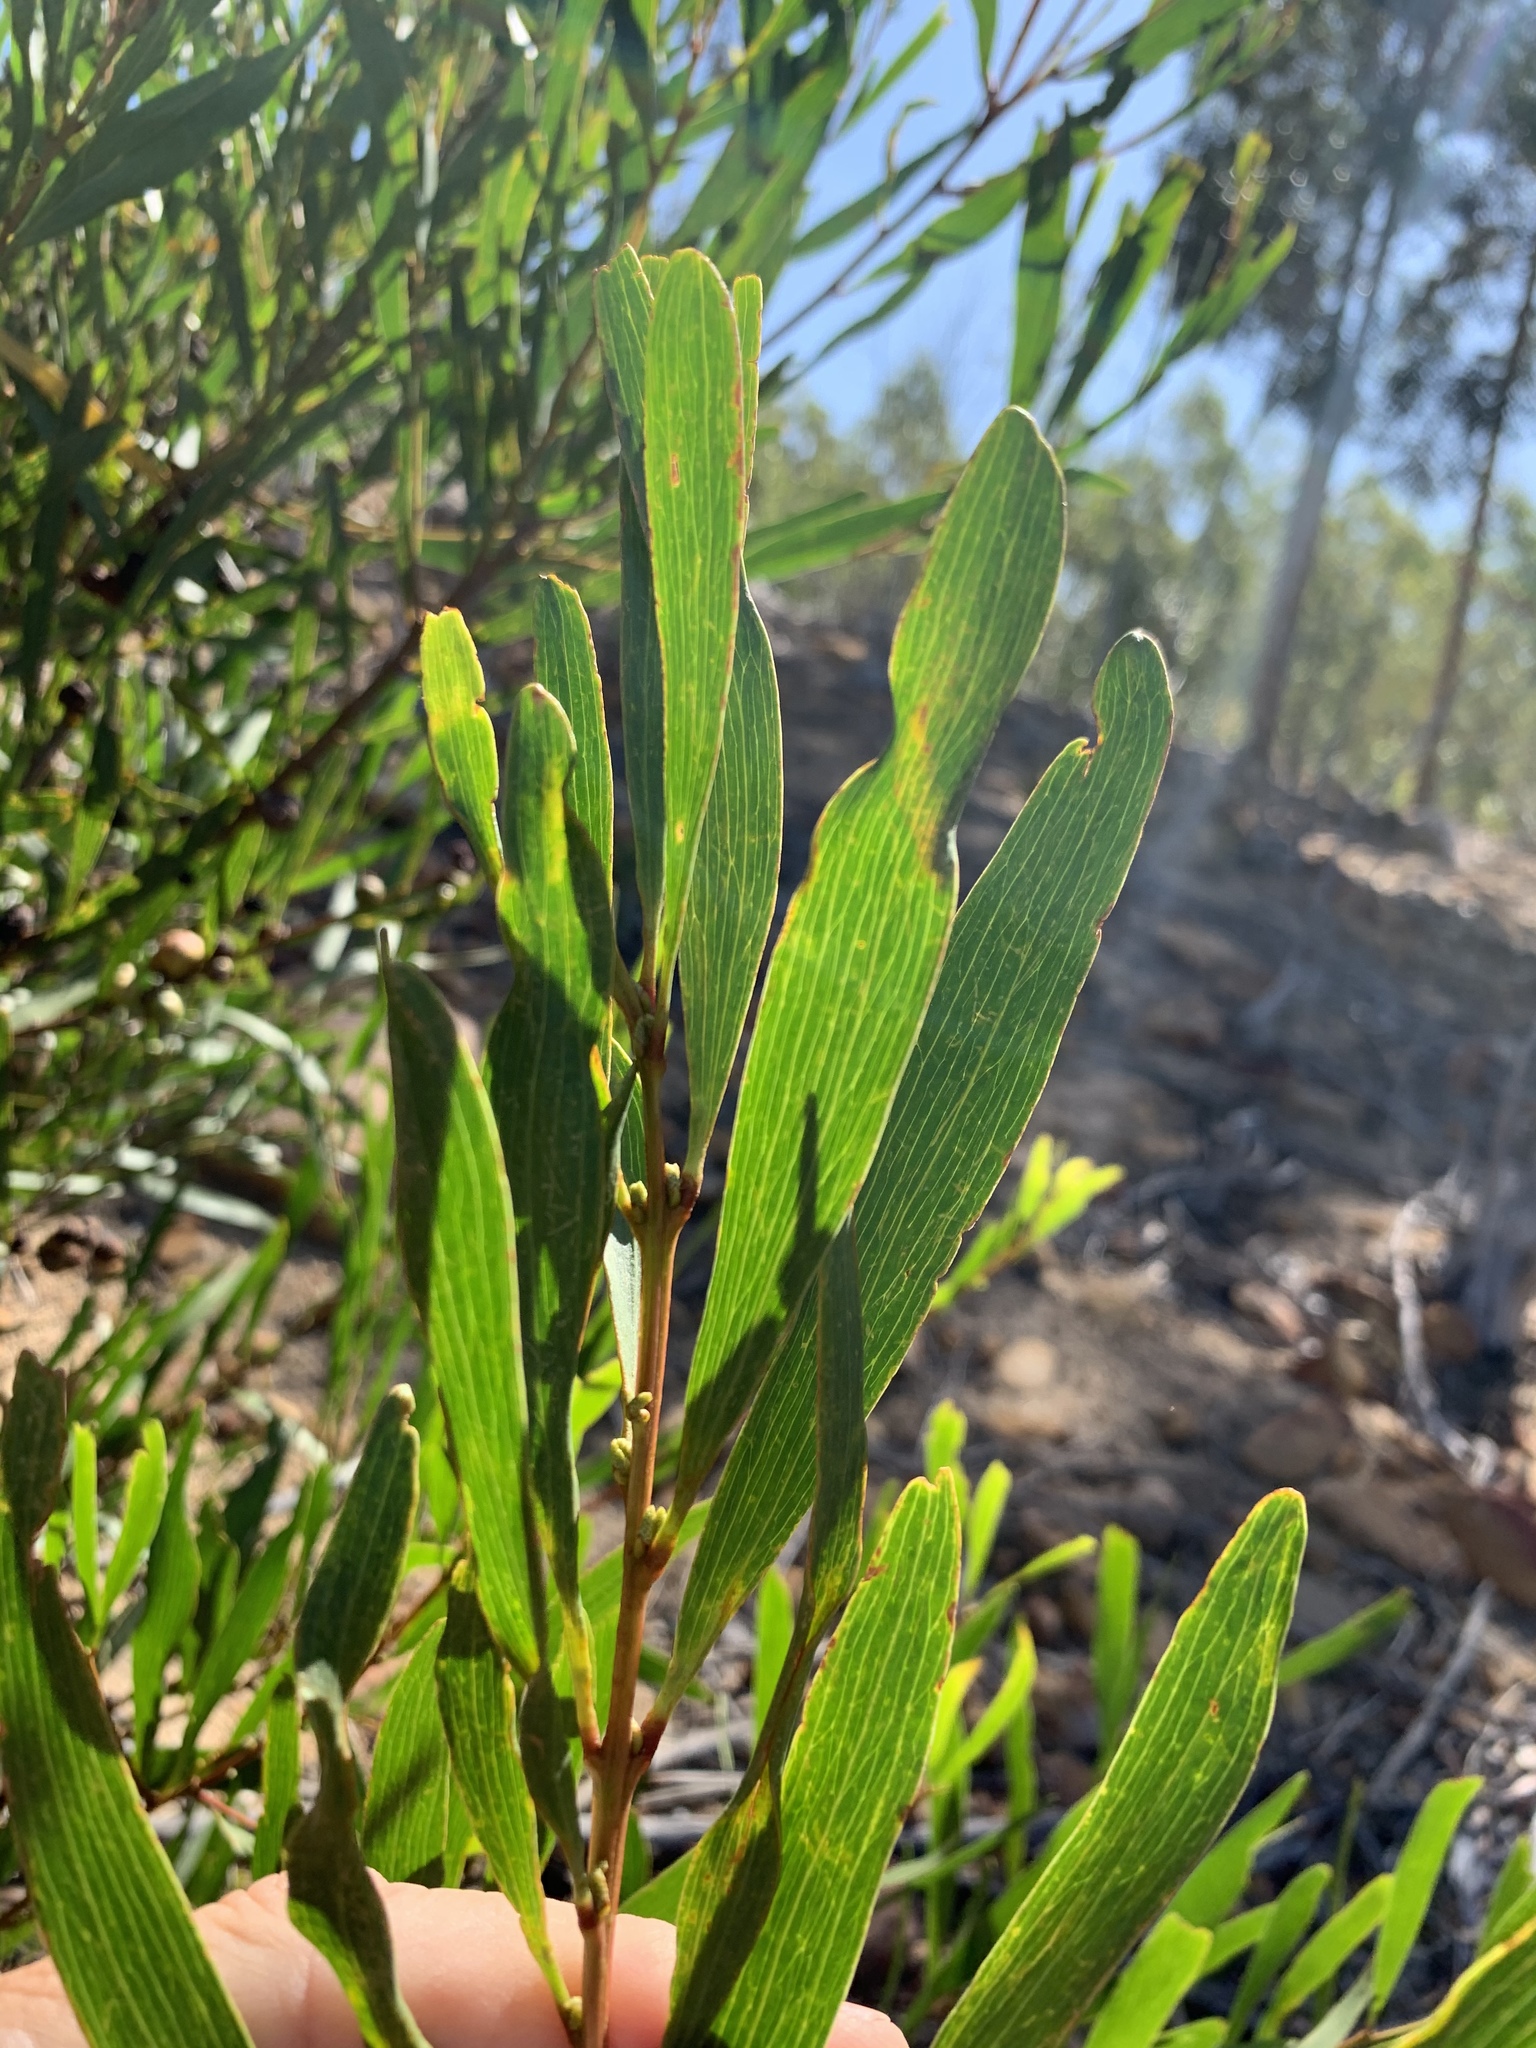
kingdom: Plantae
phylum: Tracheophyta
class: Magnoliopsida
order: Fabales
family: Fabaceae
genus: Acacia
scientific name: Acacia longifolia
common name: Sydney golden wattle
